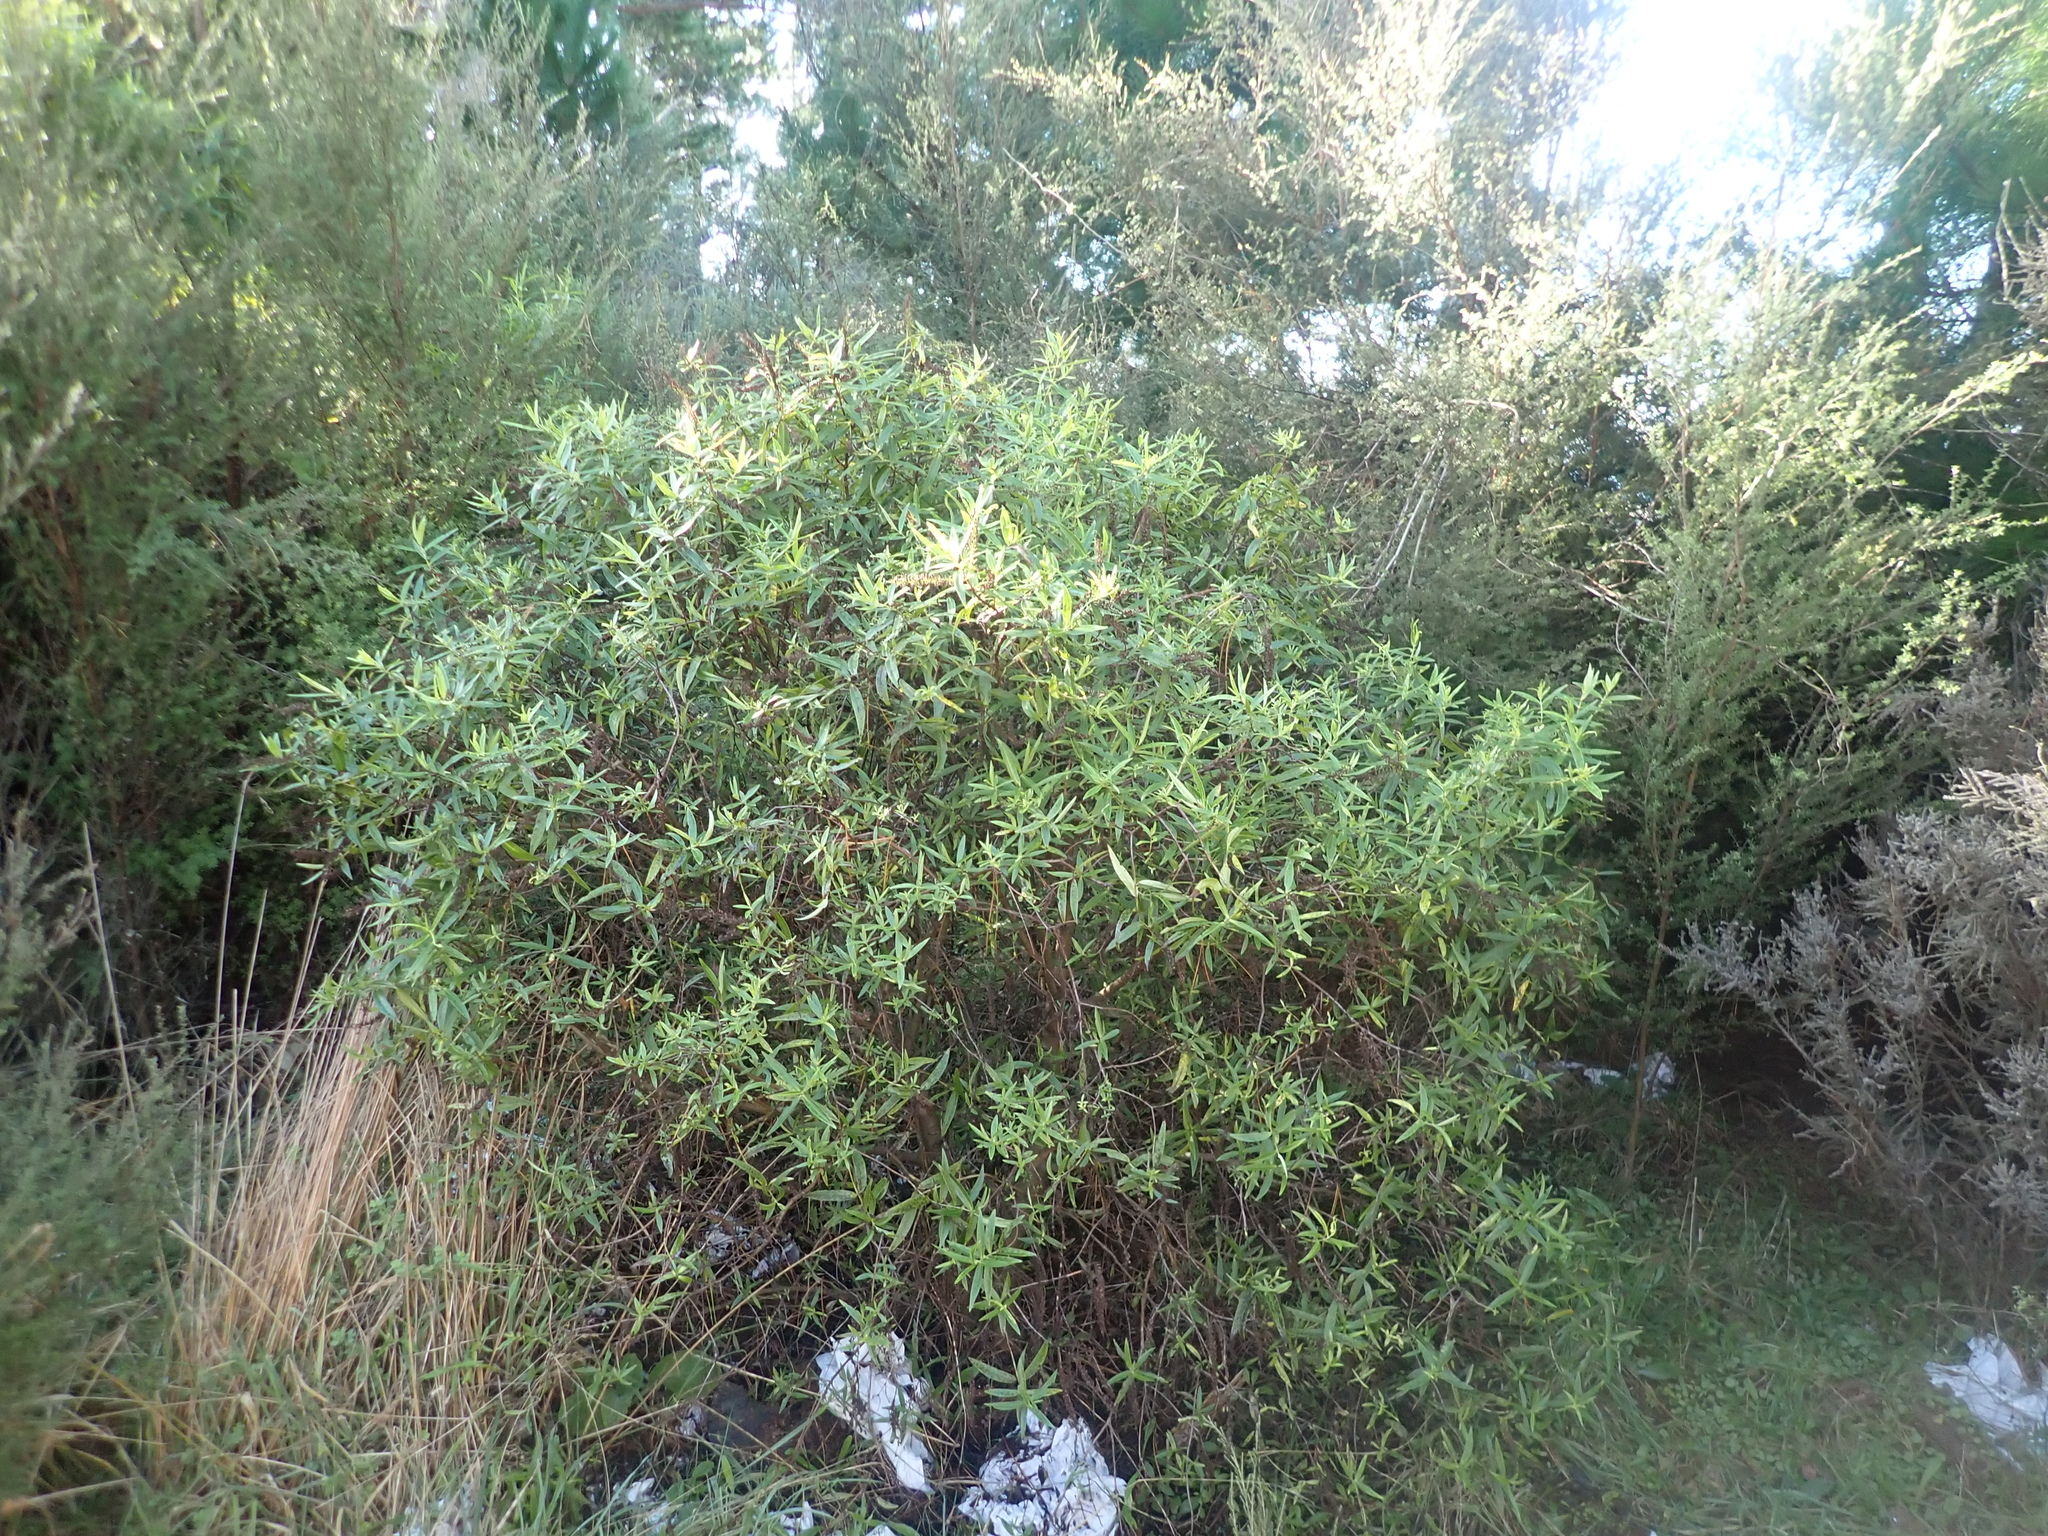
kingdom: Plantae
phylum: Tracheophyta
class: Magnoliopsida
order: Lamiales
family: Plantaginaceae
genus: Veronica
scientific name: Veronica stricta
